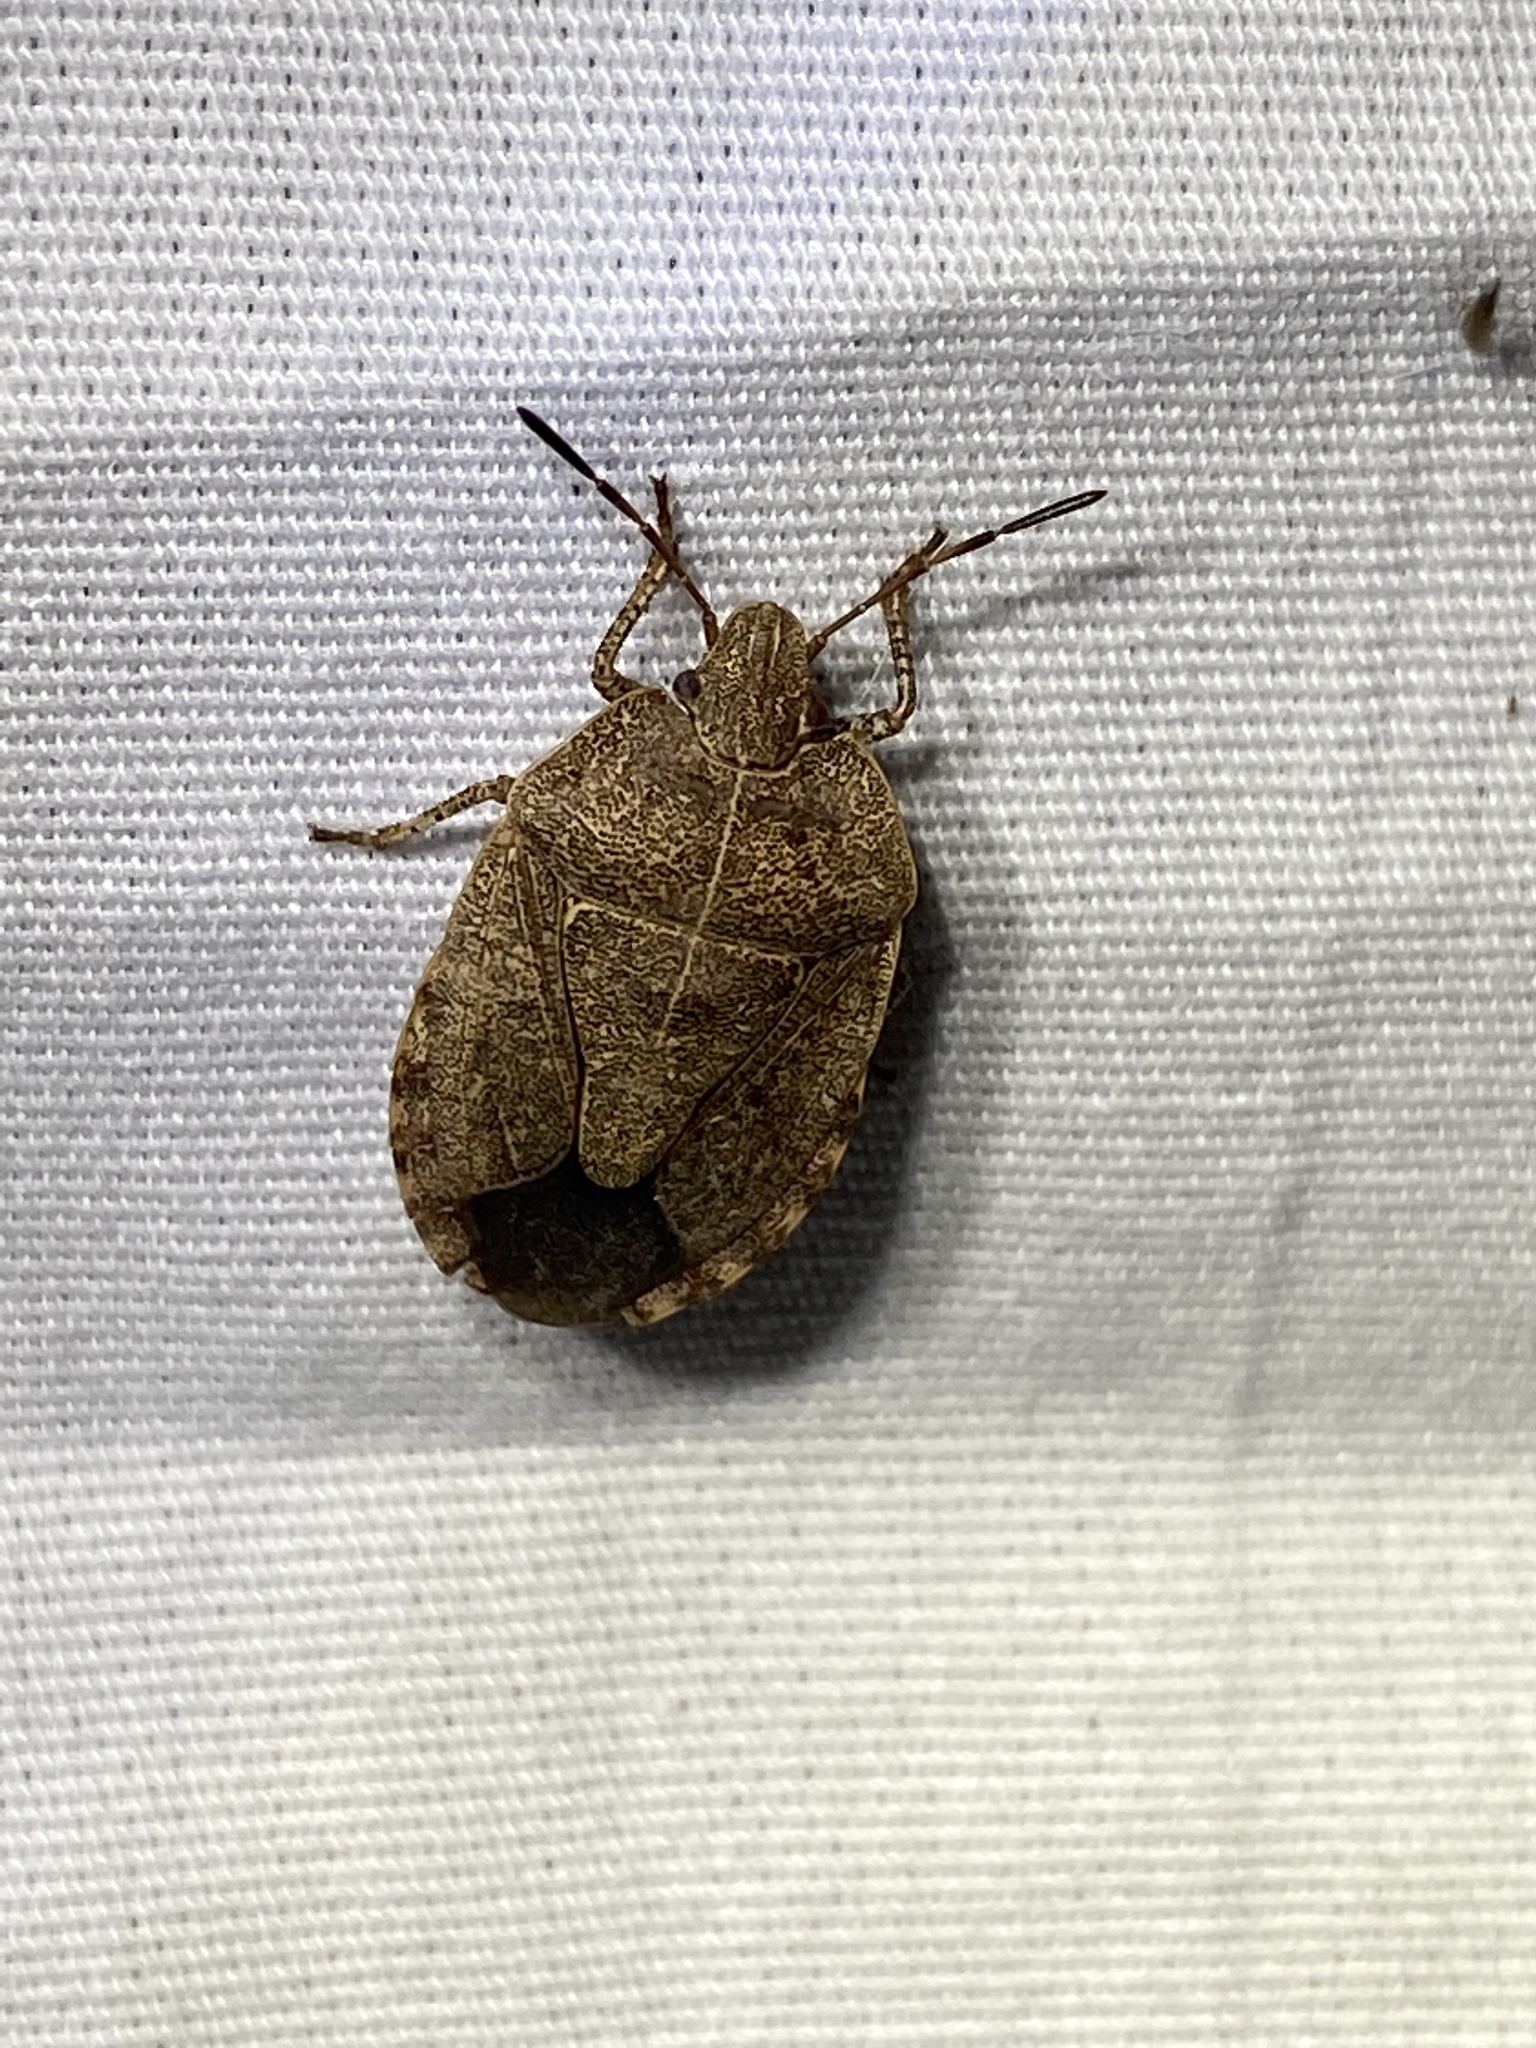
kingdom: Animalia
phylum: Arthropoda
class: Insecta
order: Hemiptera
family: Pentatomidae
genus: Menecles
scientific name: Menecles insertus
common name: Elf shoe stink bug
